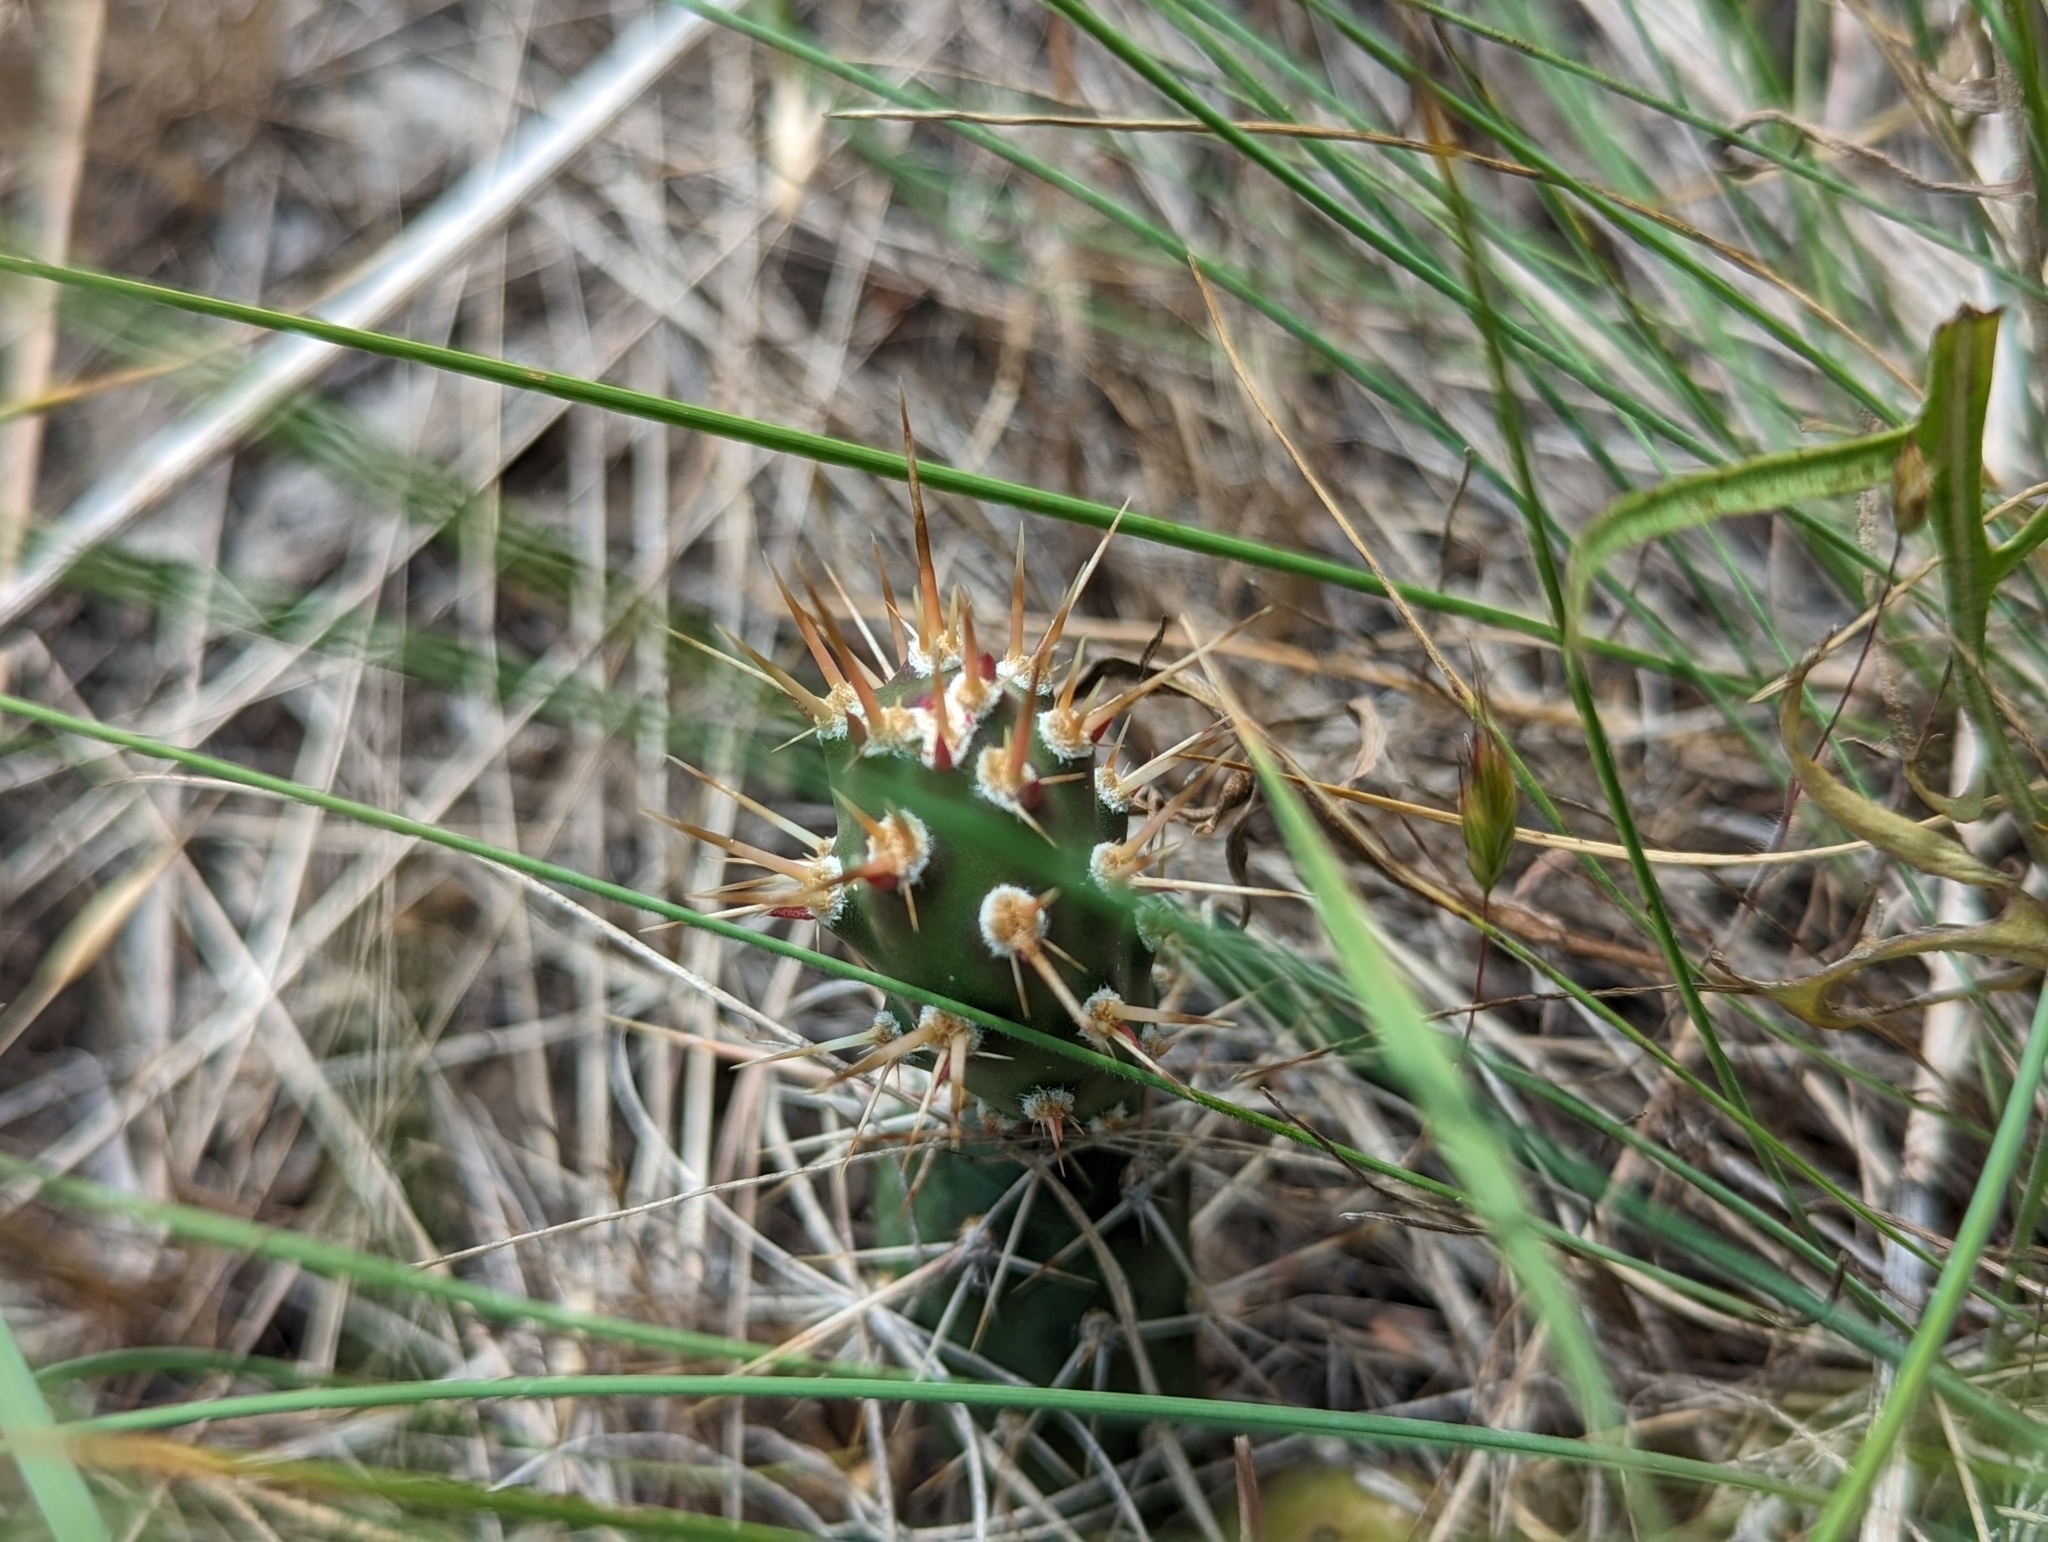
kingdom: Plantae
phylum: Tracheophyta
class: Magnoliopsida
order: Caryophyllales
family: Cactaceae
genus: Opuntia
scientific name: Opuntia fragilis
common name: Brittle cactus
